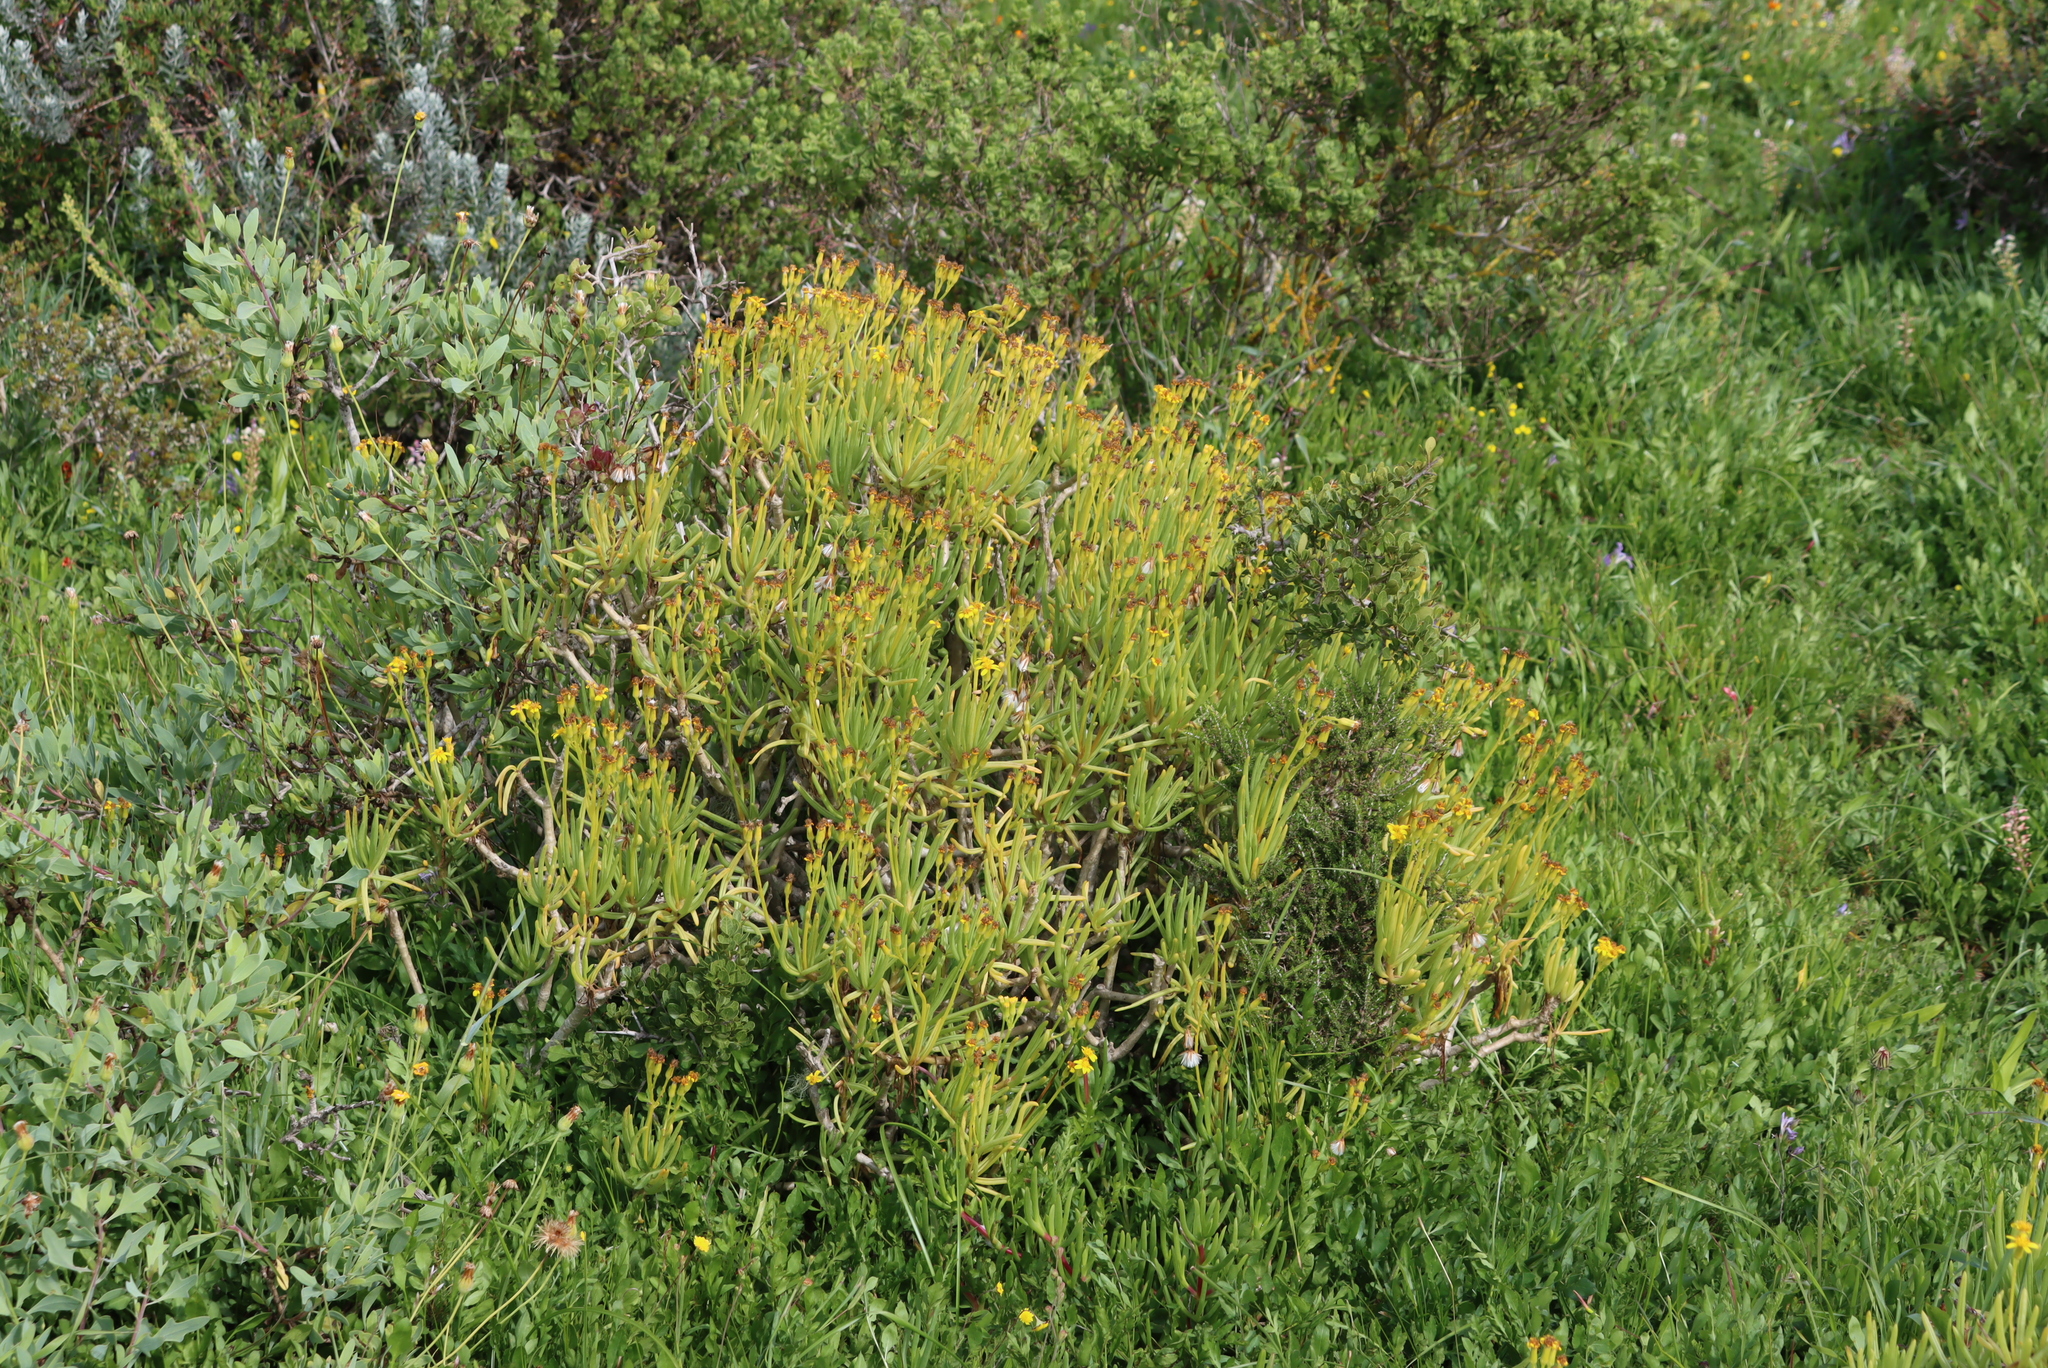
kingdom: Plantae
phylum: Tracheophyta
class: Magnoliopsida
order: Asterales
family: Asteraceae
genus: Curio
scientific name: Curio corymbifer
